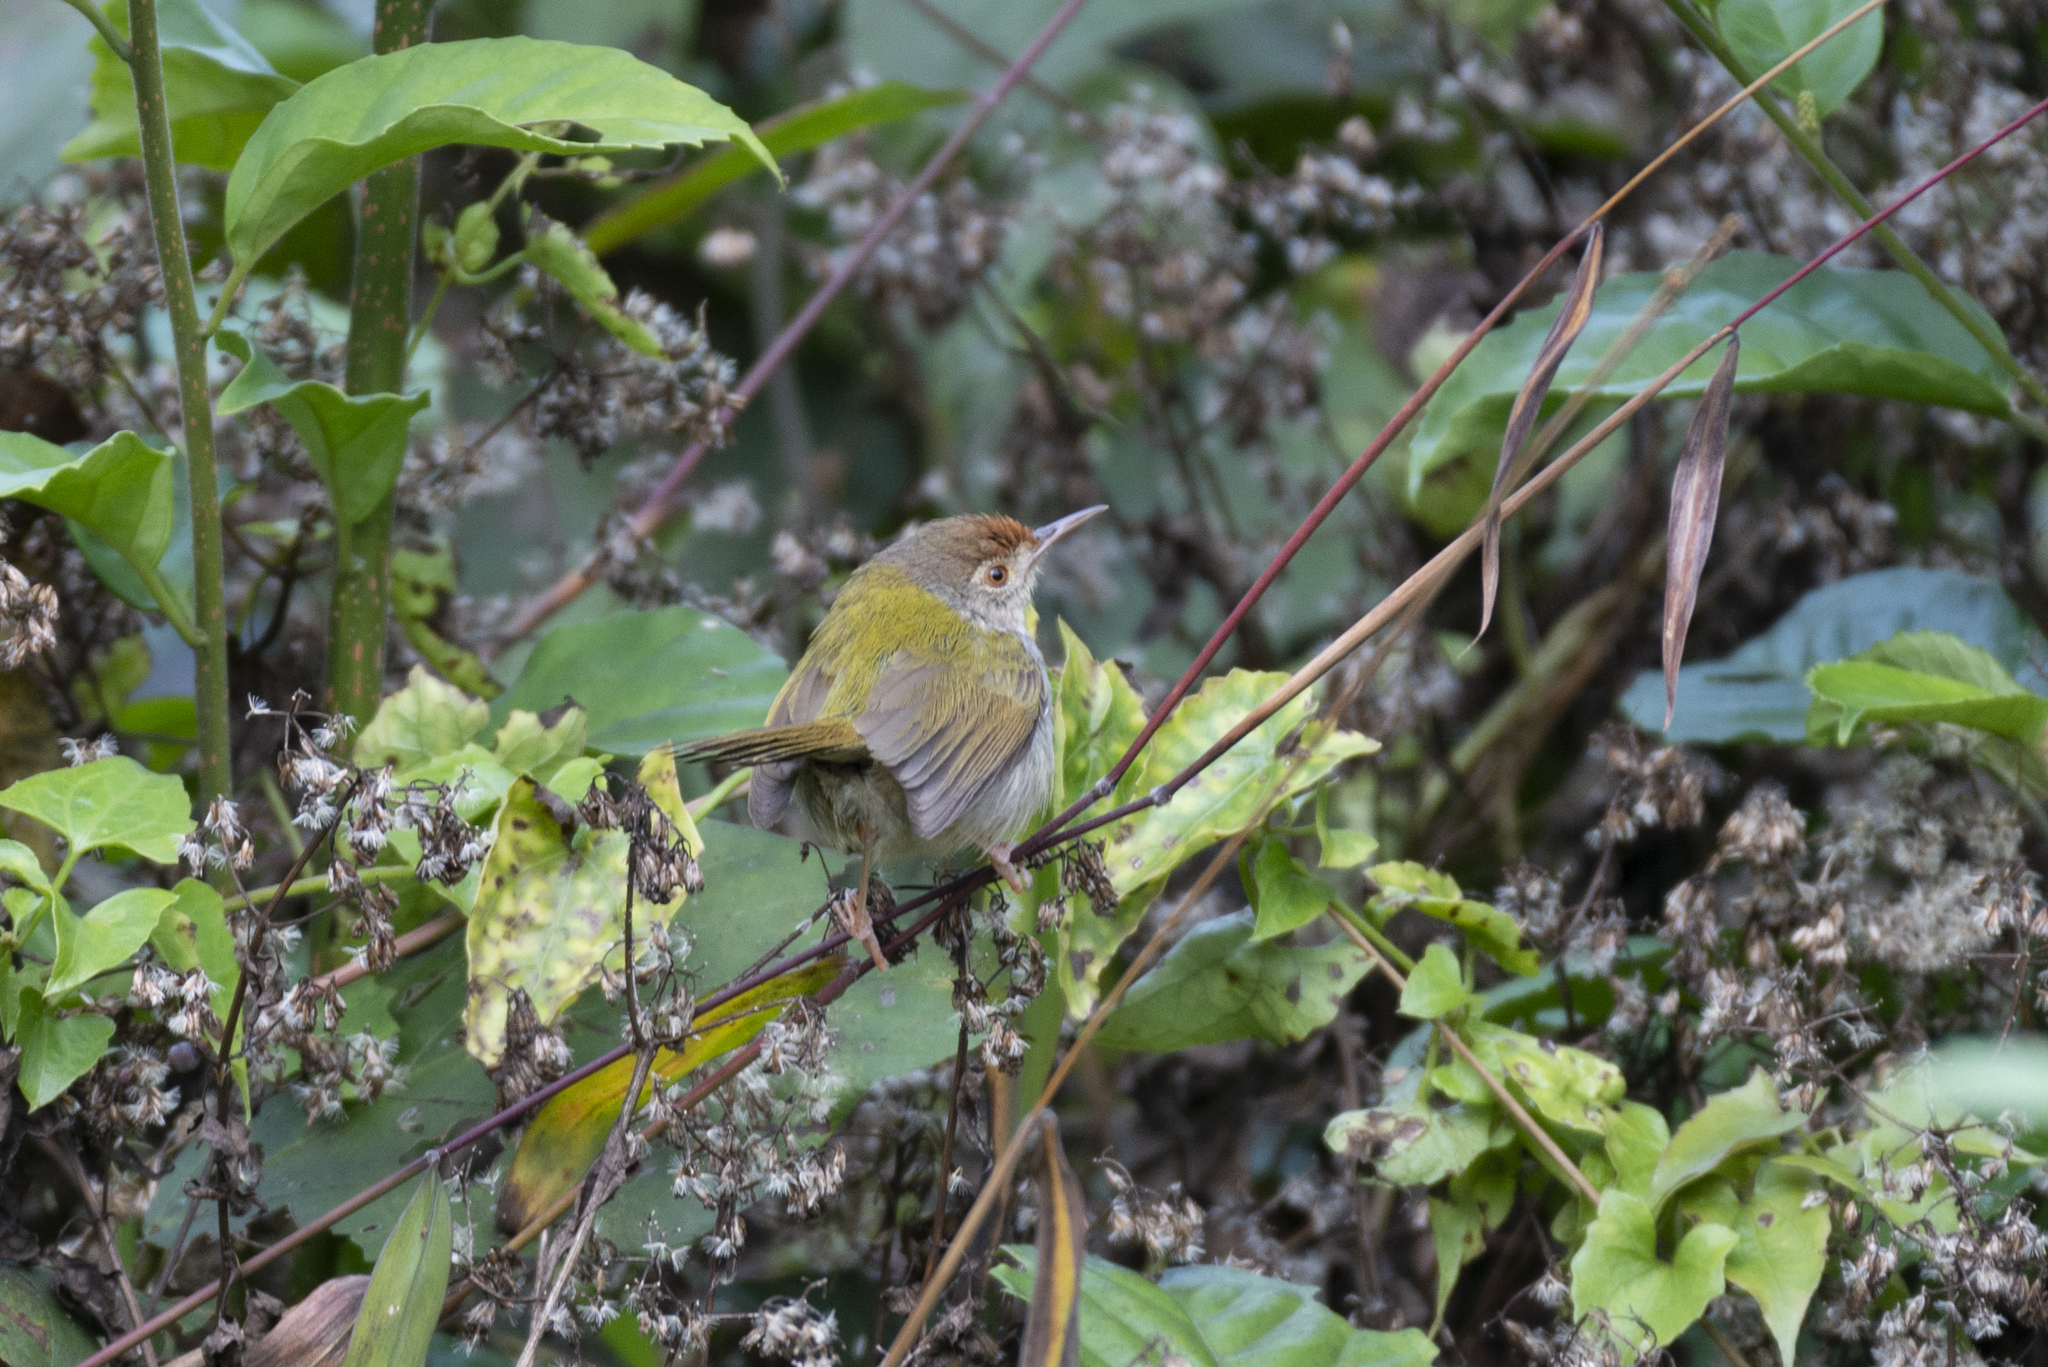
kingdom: Animalia
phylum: Chordata
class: Aves
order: Passeriformes
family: Cisticolidae
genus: Orthotomus
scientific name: Orthotomus sutorius
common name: Common tailorbird
